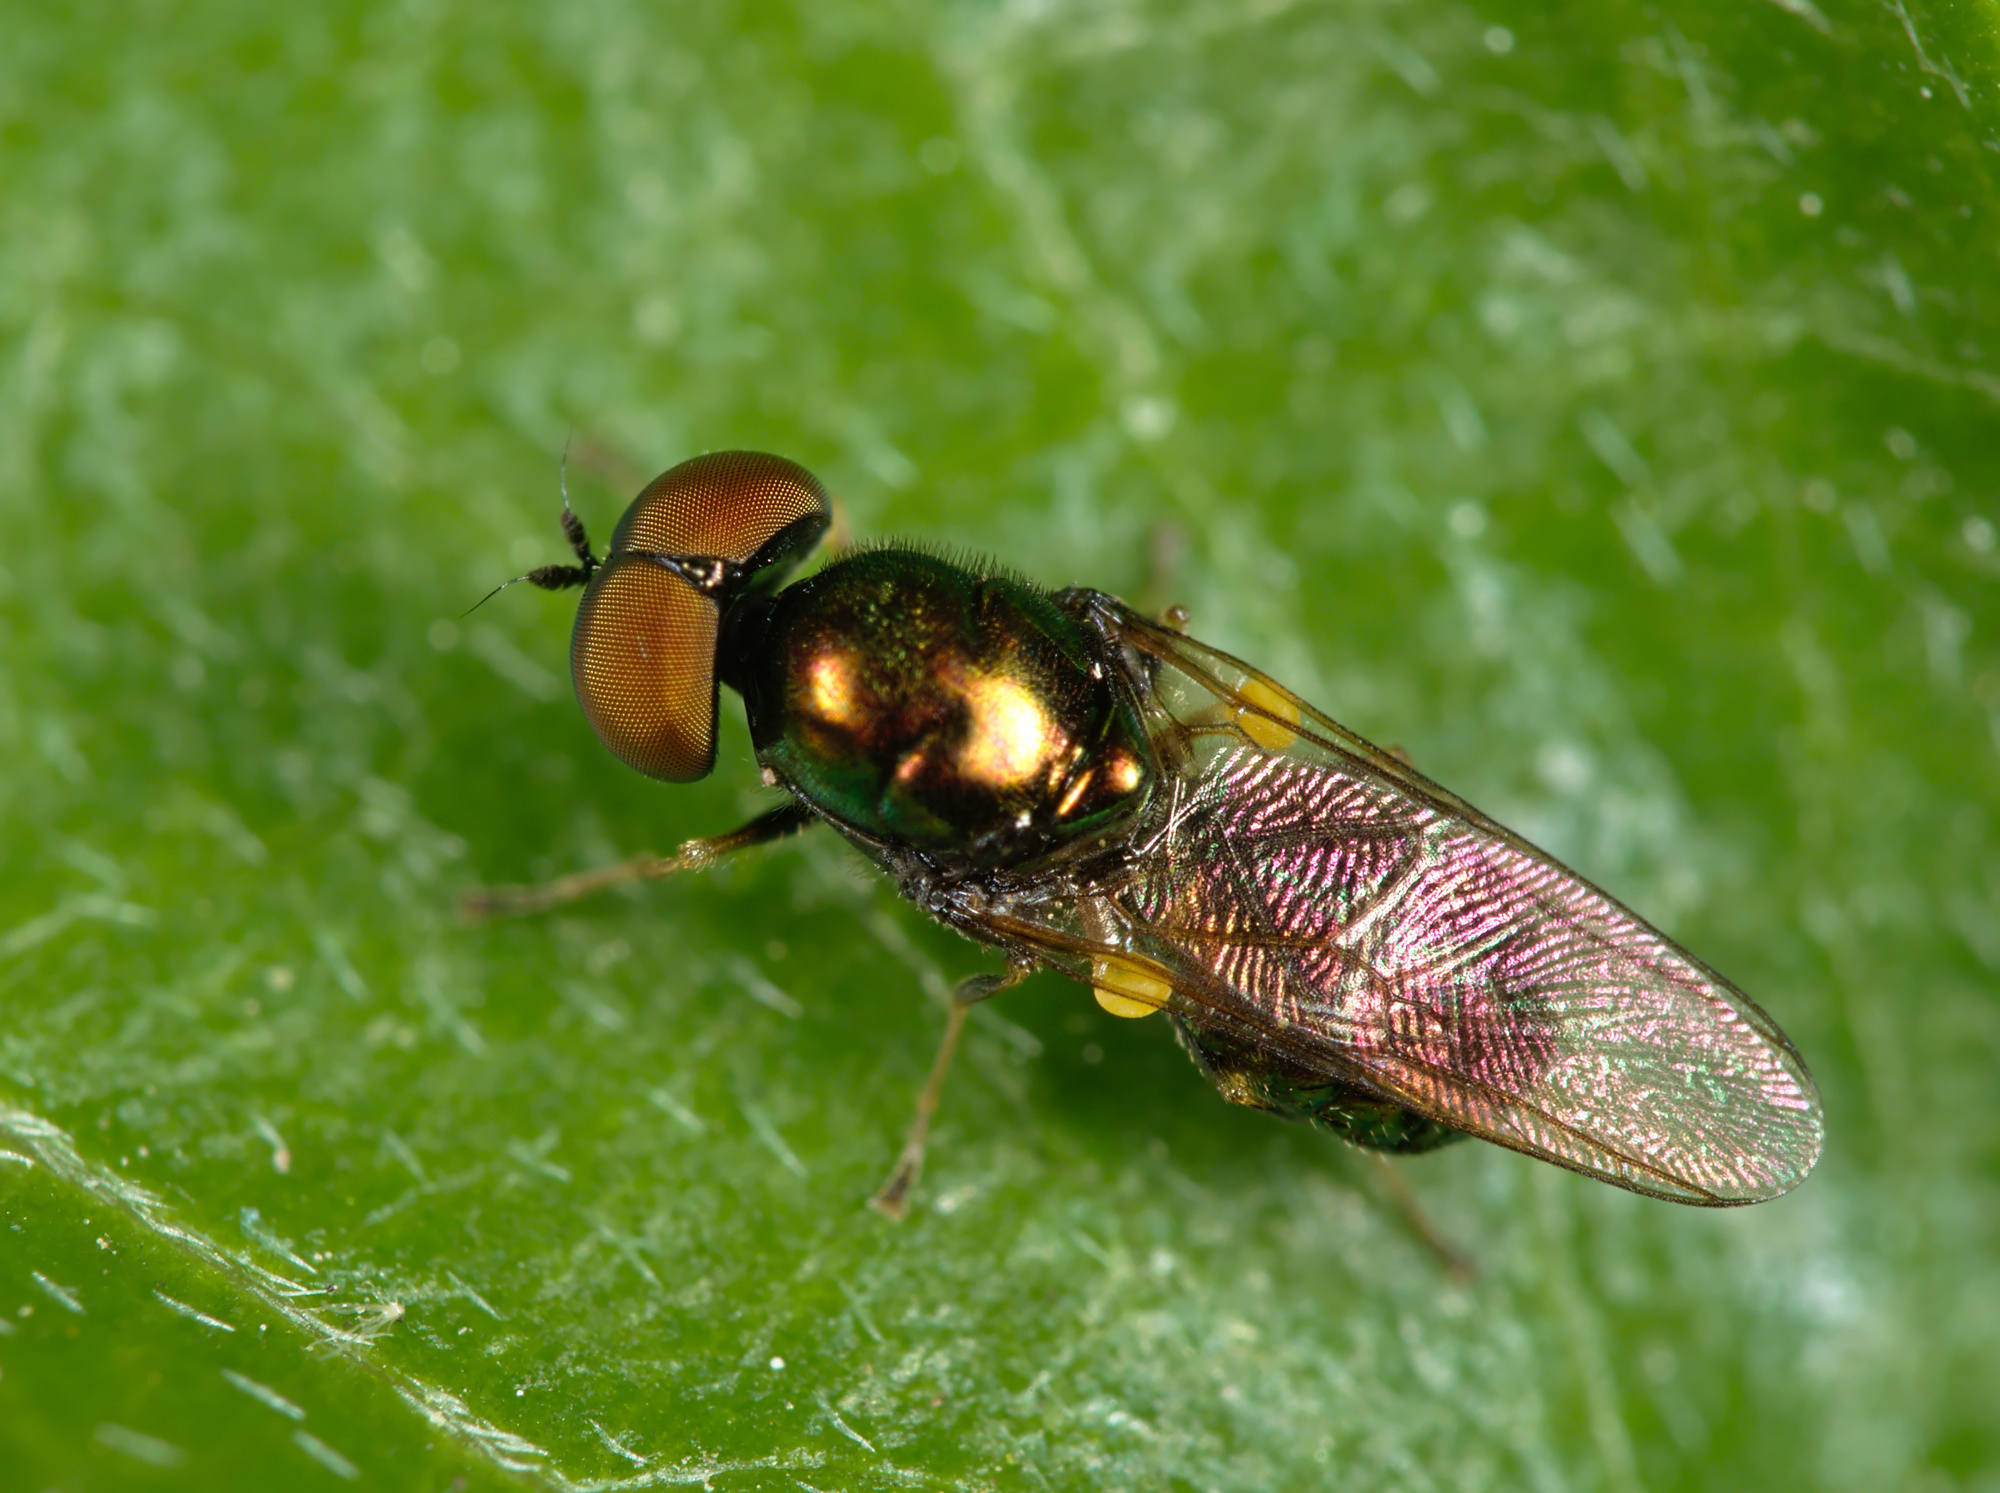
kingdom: Animalia
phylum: Arthropoda
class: Insecta
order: Diptera
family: Stratiomyidae
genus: Microchrysa
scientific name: Microchrysa polita
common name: Black-horned gem
